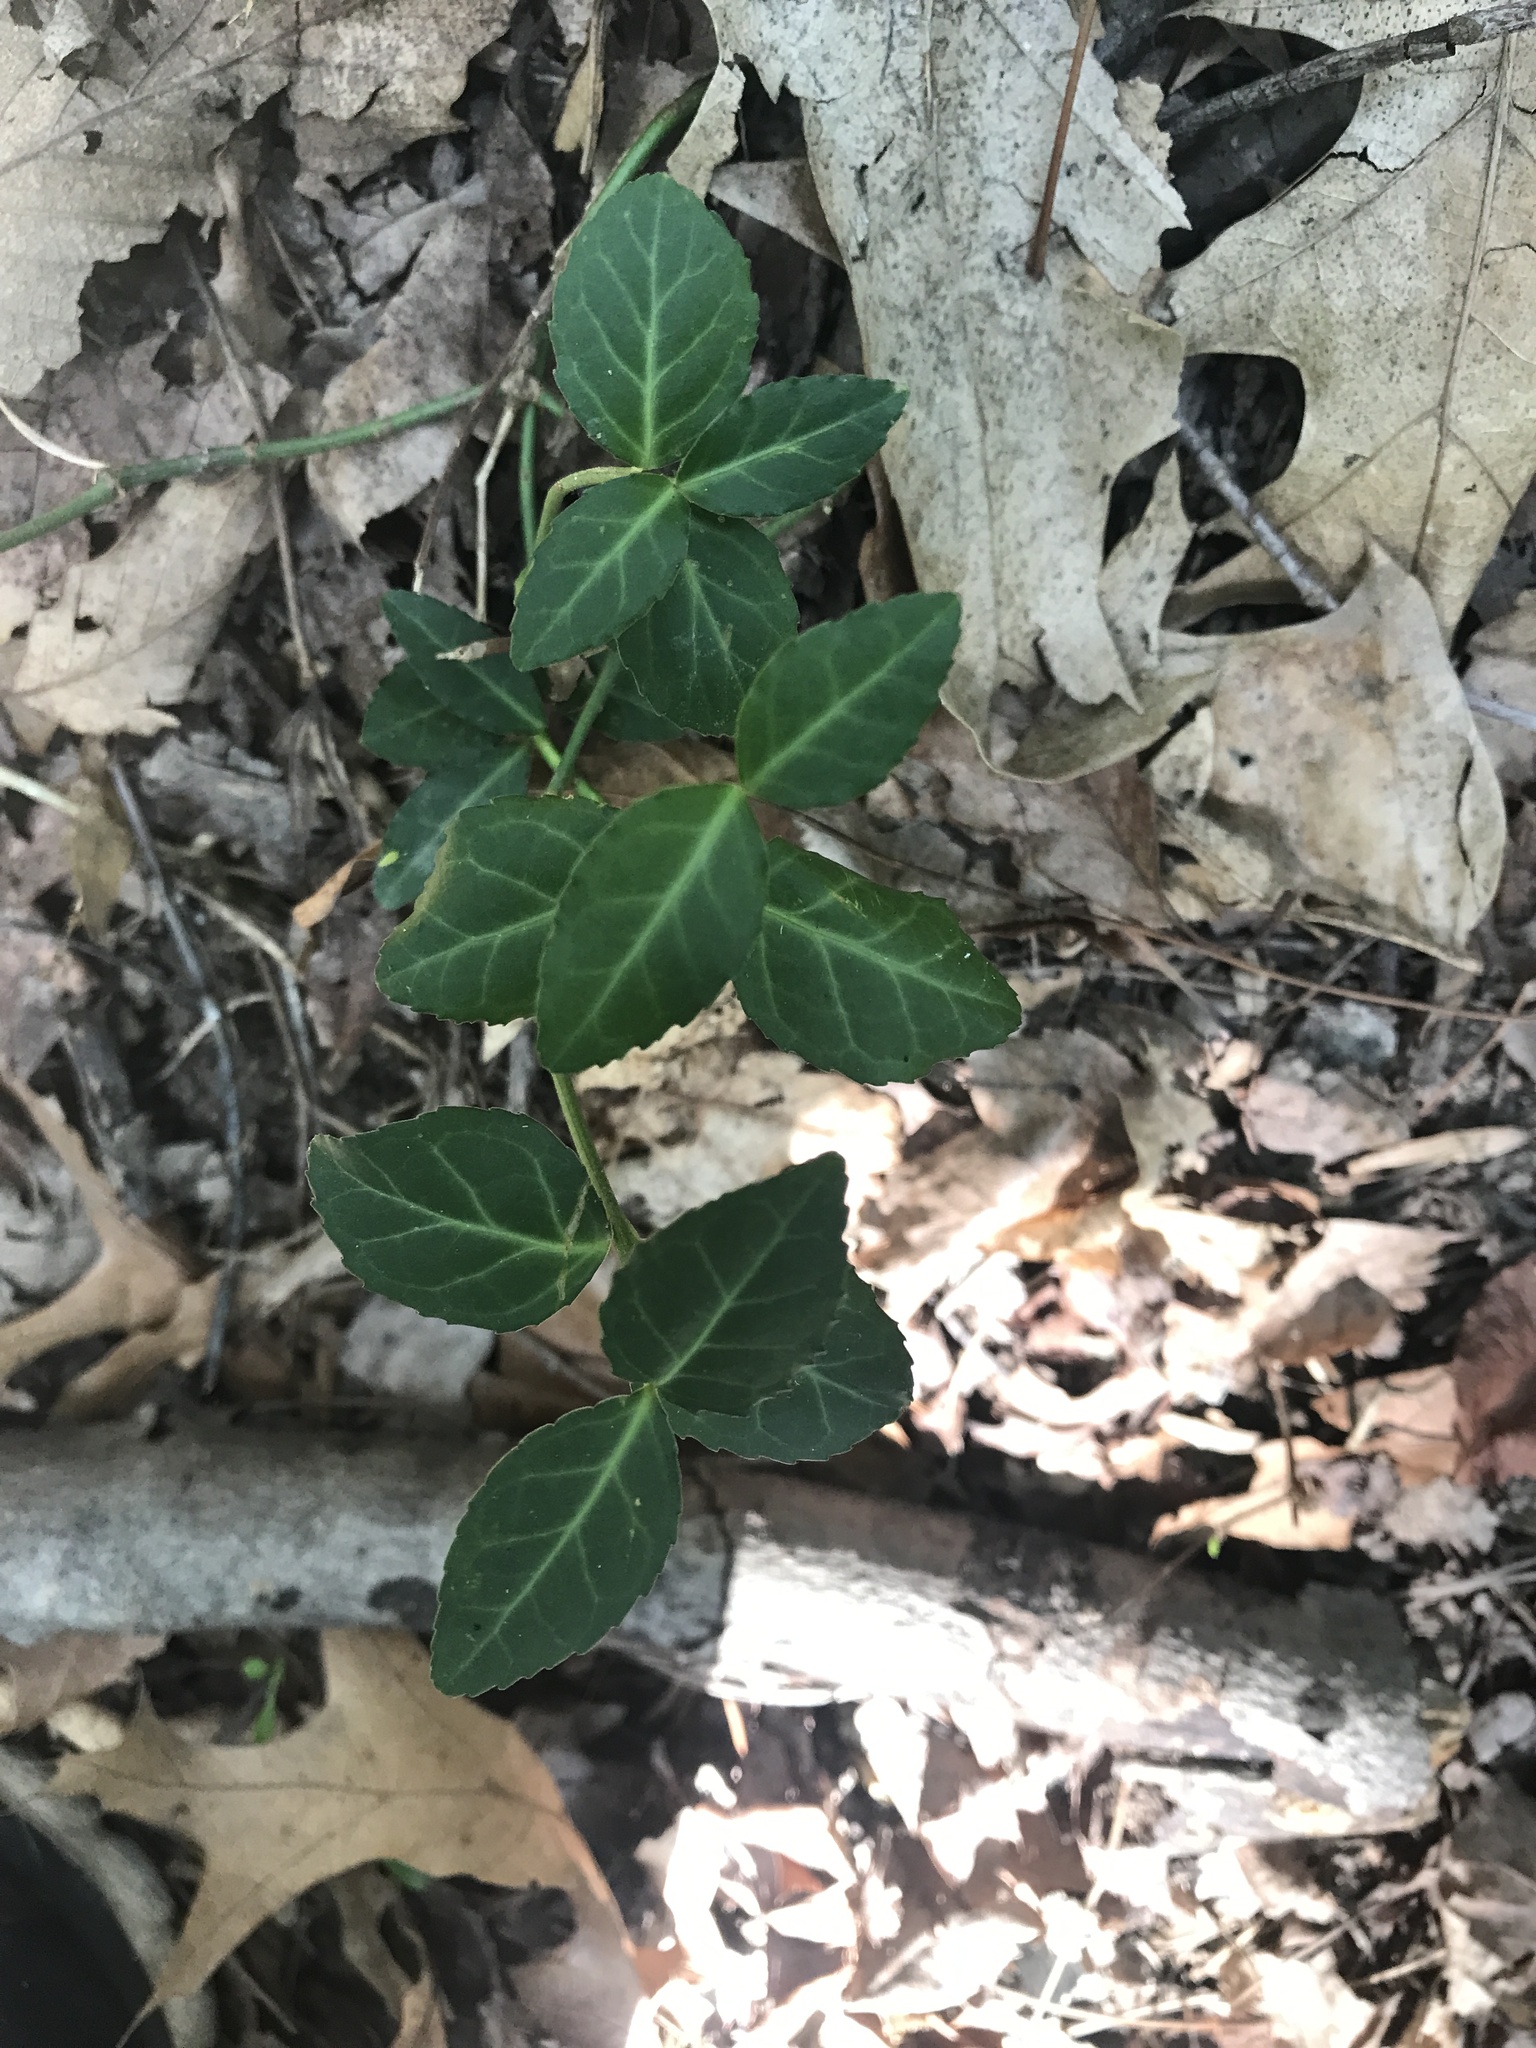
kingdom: Plantae
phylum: Tracheophyta
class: Magnoliopsida
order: Celastrales
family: Celastraceae
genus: Euonymus
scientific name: Euonymus fortunei
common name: Climbing euonymus
